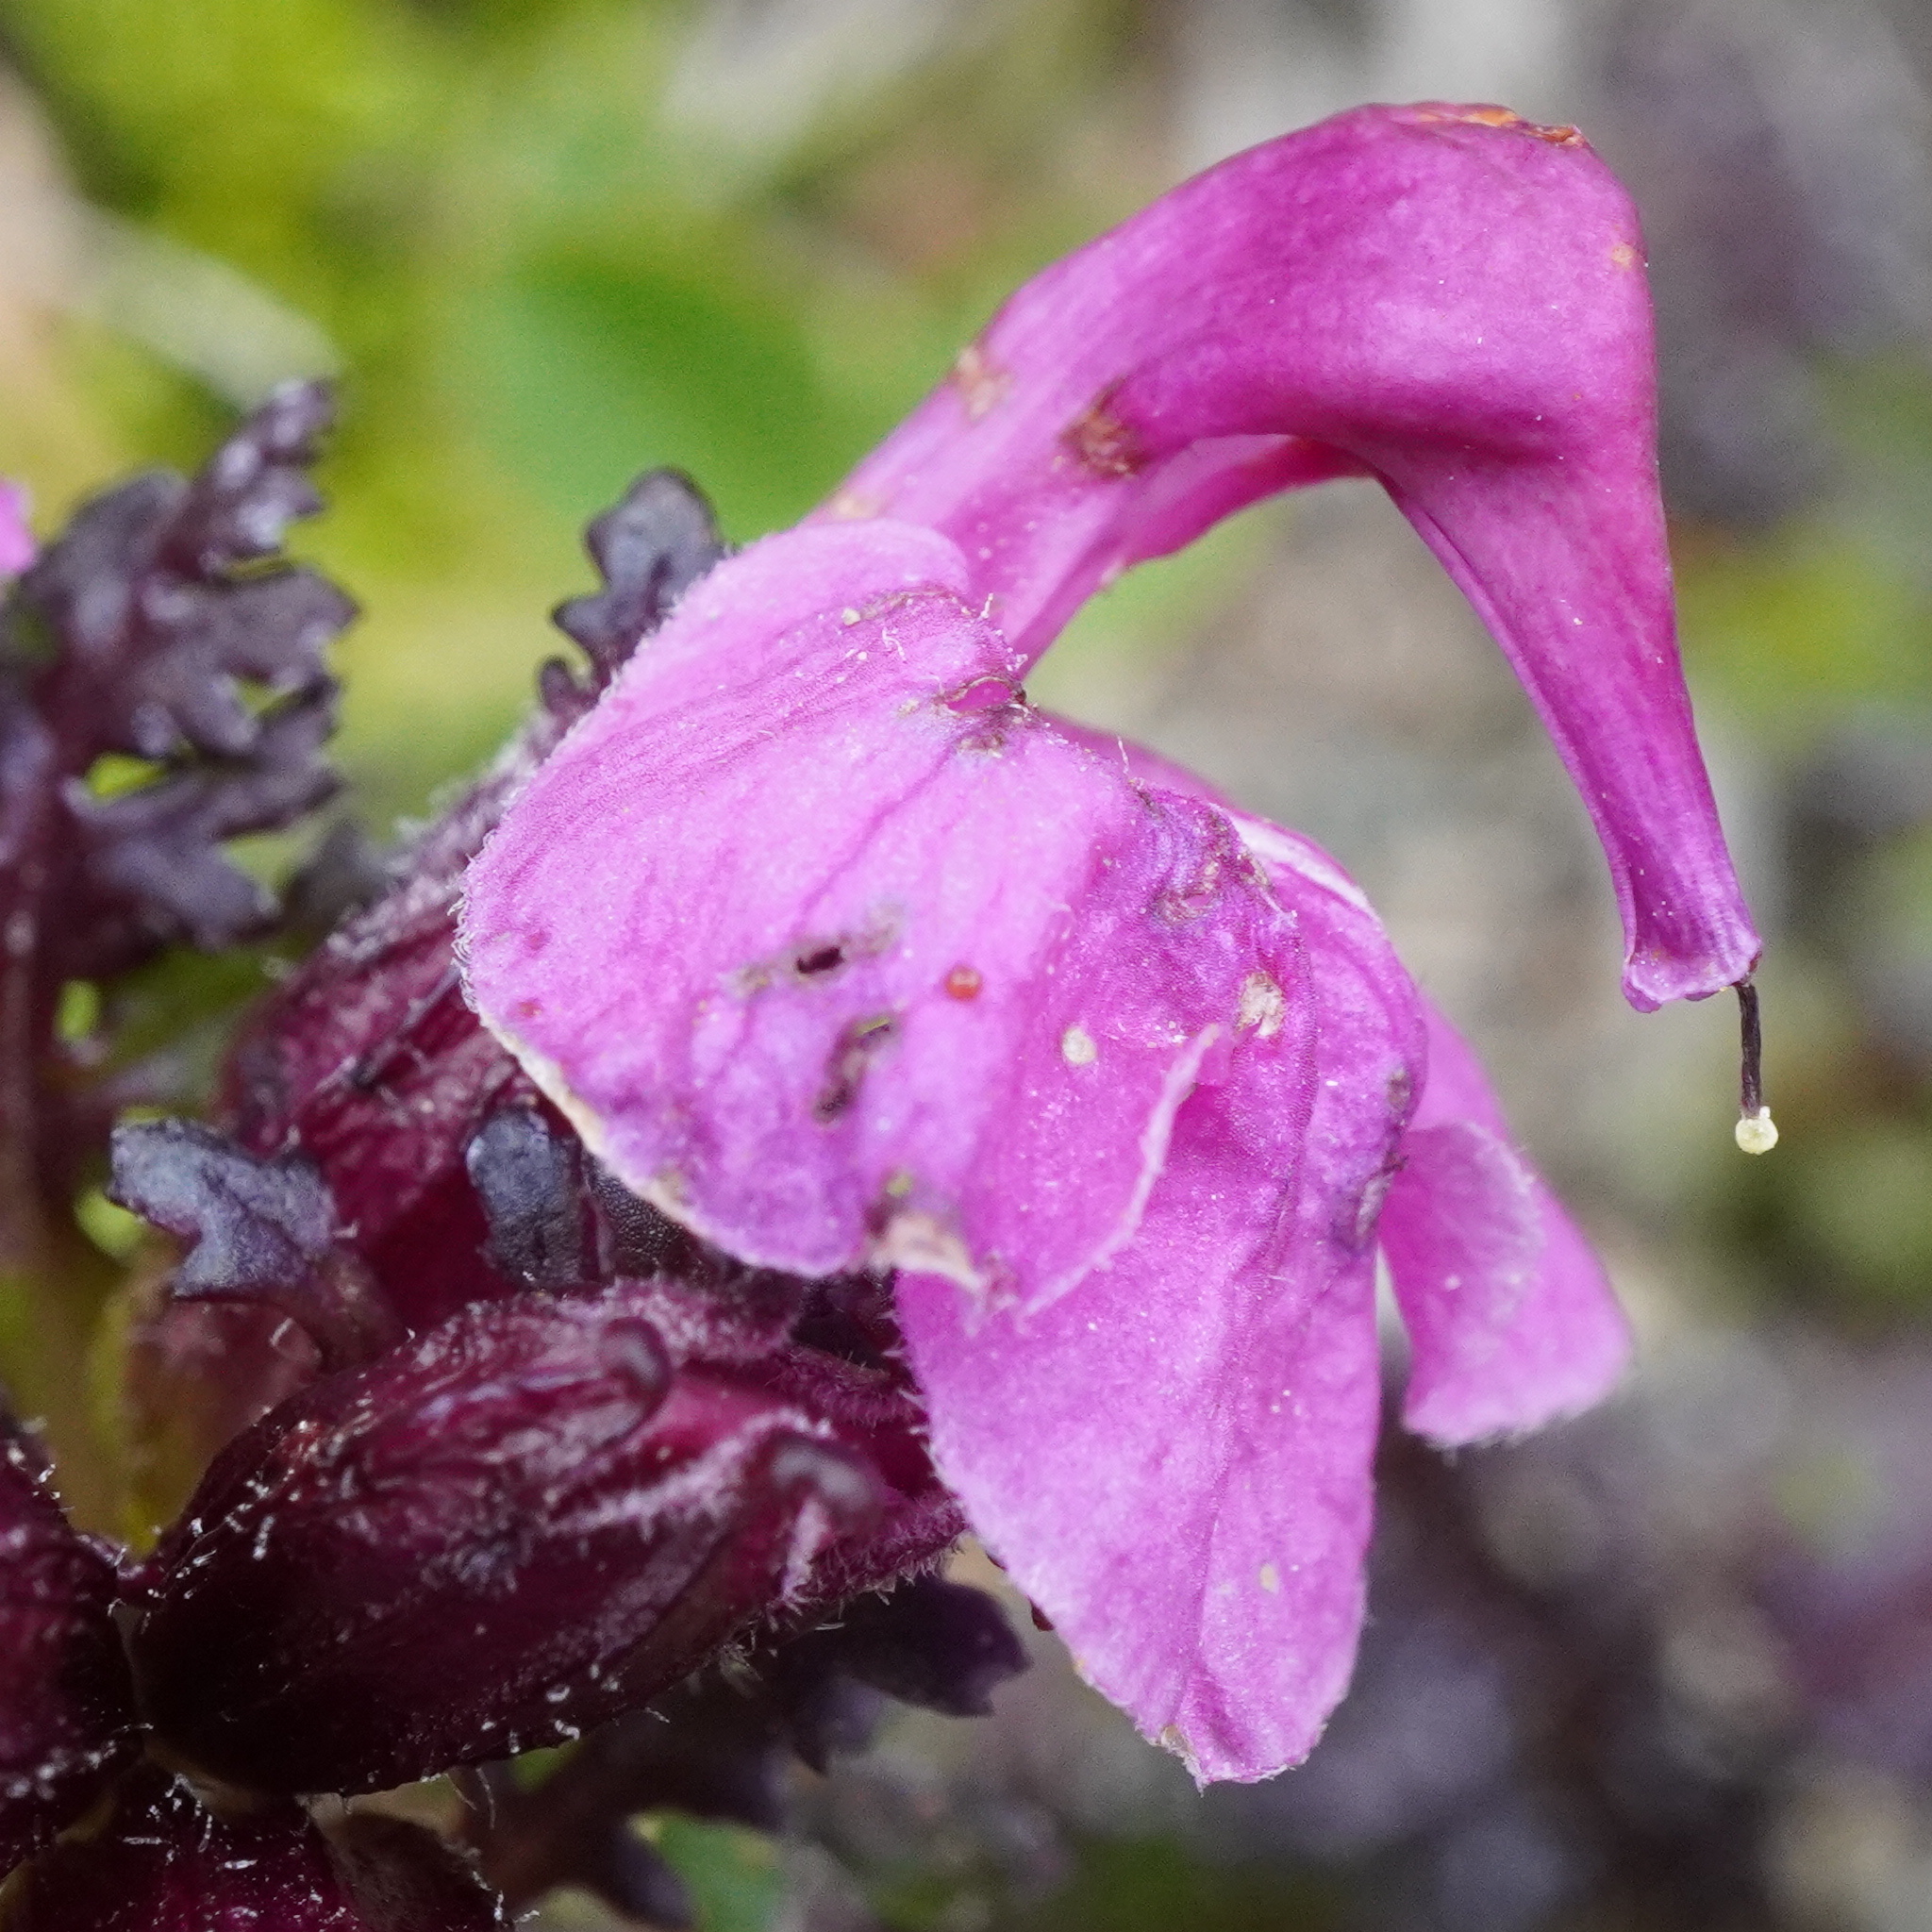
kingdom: Plantae
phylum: Tracheophyta
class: Magnoliopsida
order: Lamiales
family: Orobanchaceae
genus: Pedicularis
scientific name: Pedicularis rostratocapitata
